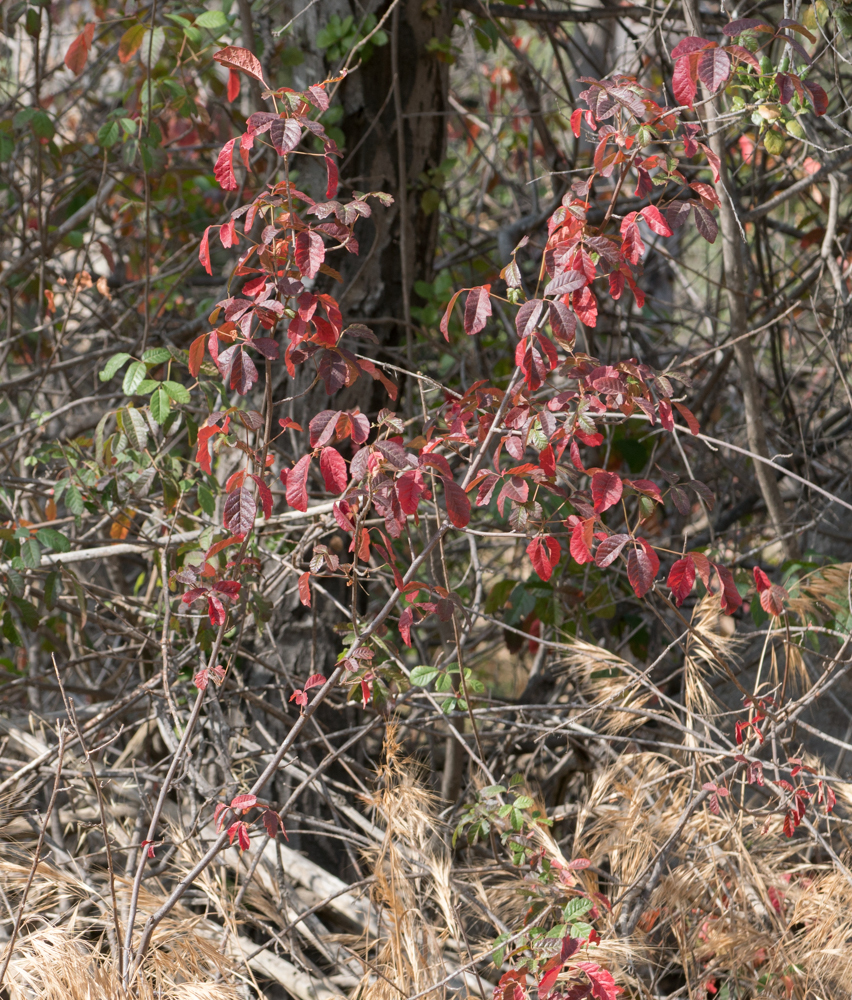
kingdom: Plantae
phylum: Tracheophyta
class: Magnoliopsida
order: Sapindales
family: Anacardiaceae
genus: Toxicodendron
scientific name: Toxicodendron diversilobum
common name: Pacific poison-oak
